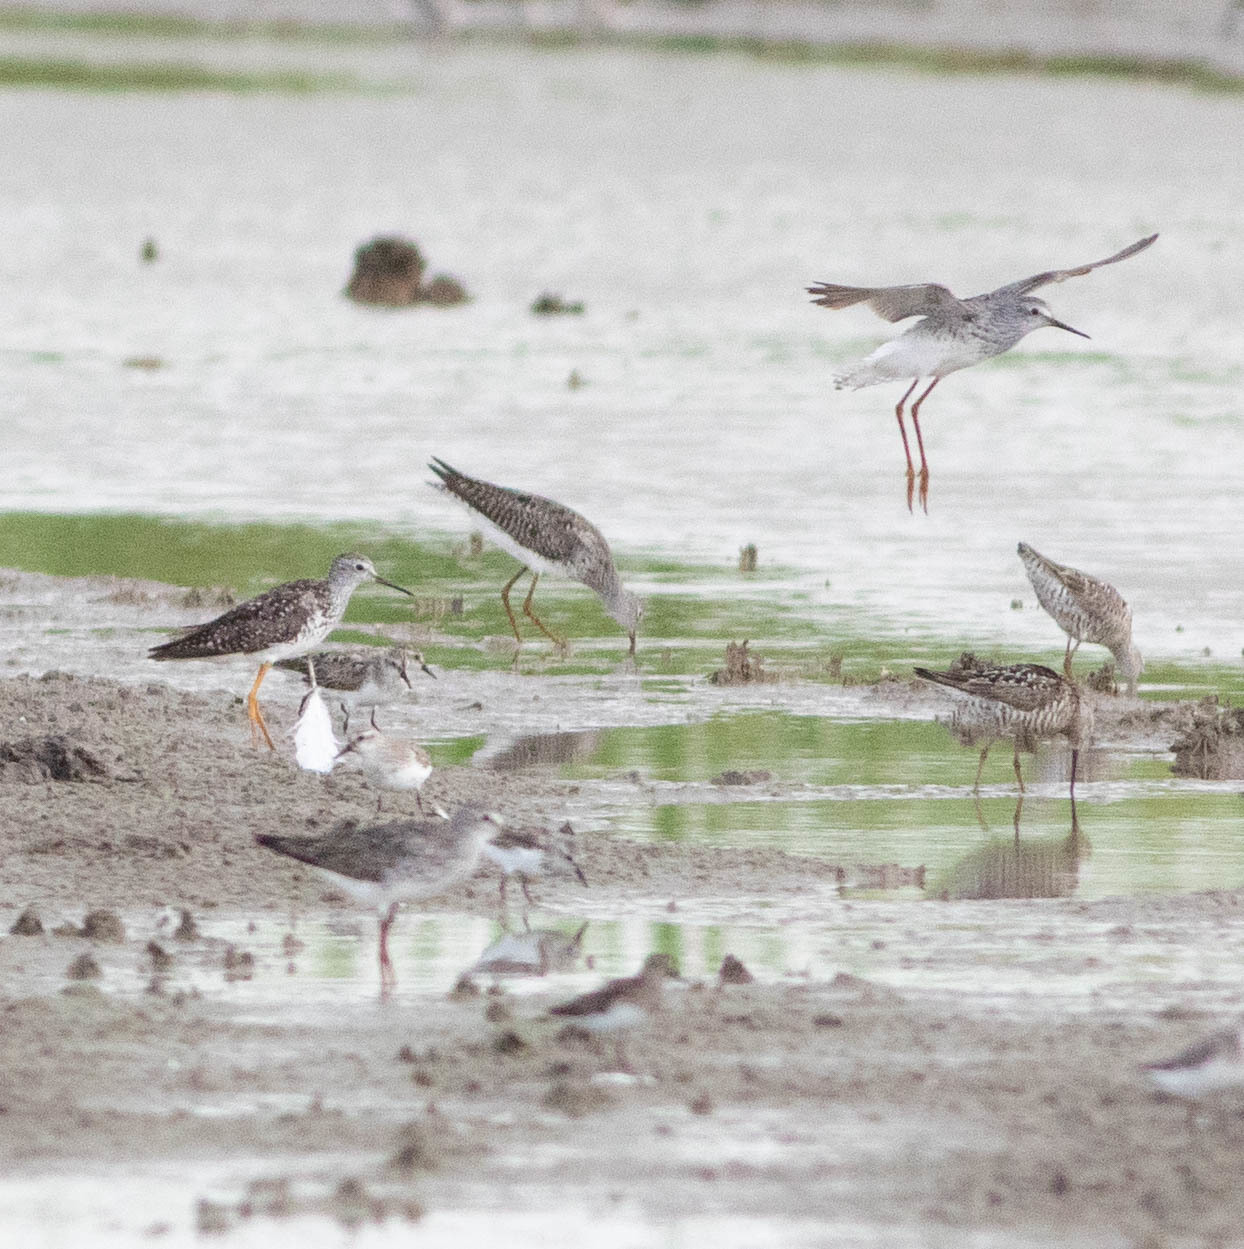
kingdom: Animalia
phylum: Chordata
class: Aves
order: Charadriiformes
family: Scolopacidae
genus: Calidris
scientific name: Calidris himantopus
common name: Stilt sandpiper
